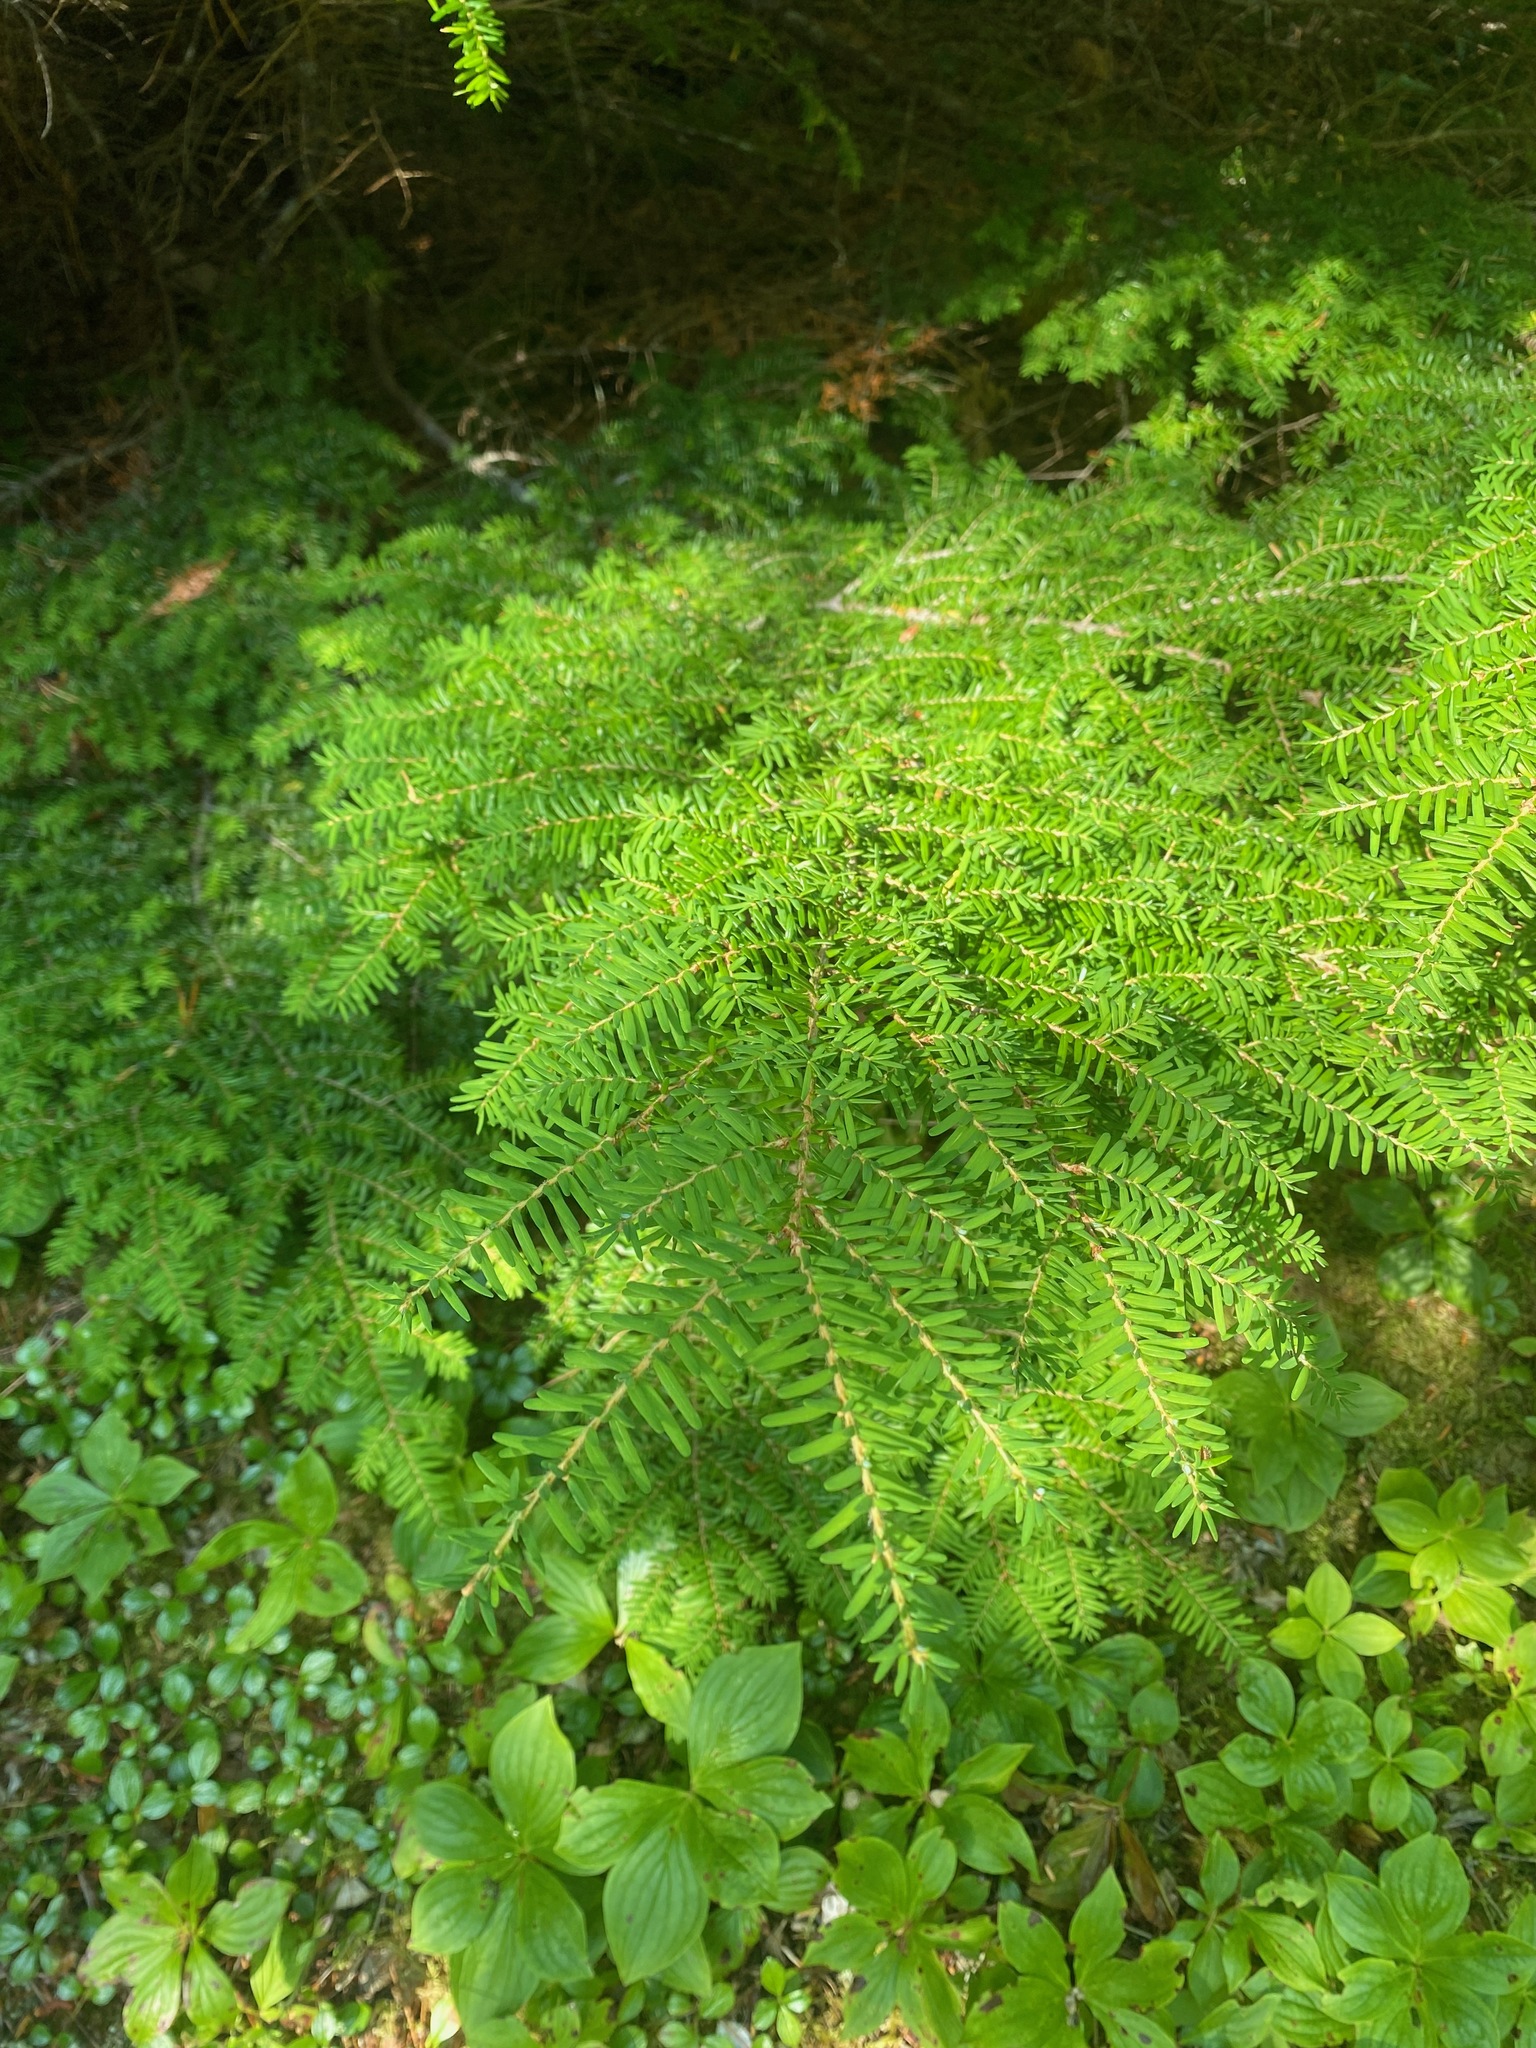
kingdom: Plantae
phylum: Tracheophyta
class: Pinopsida
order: Pinales
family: Pinaceae
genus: Tsuga
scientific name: Tsuga heterophylla
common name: Western hemlock
